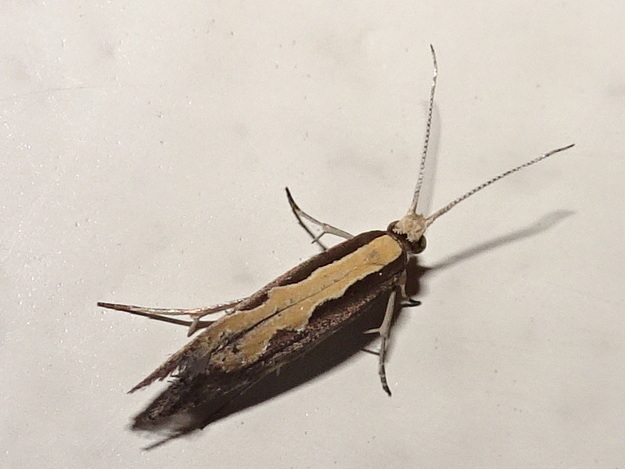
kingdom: Animalia
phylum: Arthropoda
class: Insecta
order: Lepidoptera
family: Plutellidae
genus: Plutella
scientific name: Plutella xylostella
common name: Diamond-back moth
